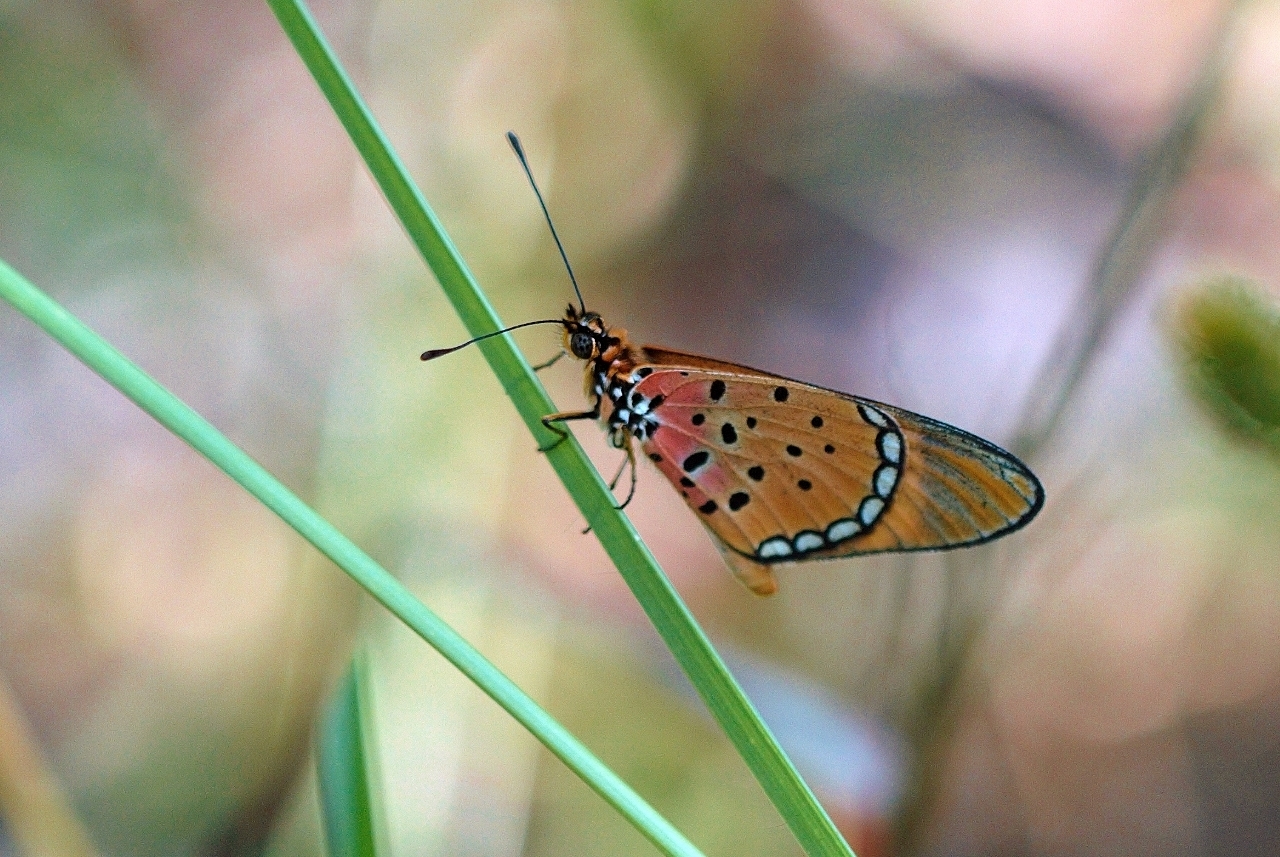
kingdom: Animalia
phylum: Arthropoda
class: Insecta
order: Lepidoptera
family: Nymphalidae
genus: Stephenia
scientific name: Stephenia
